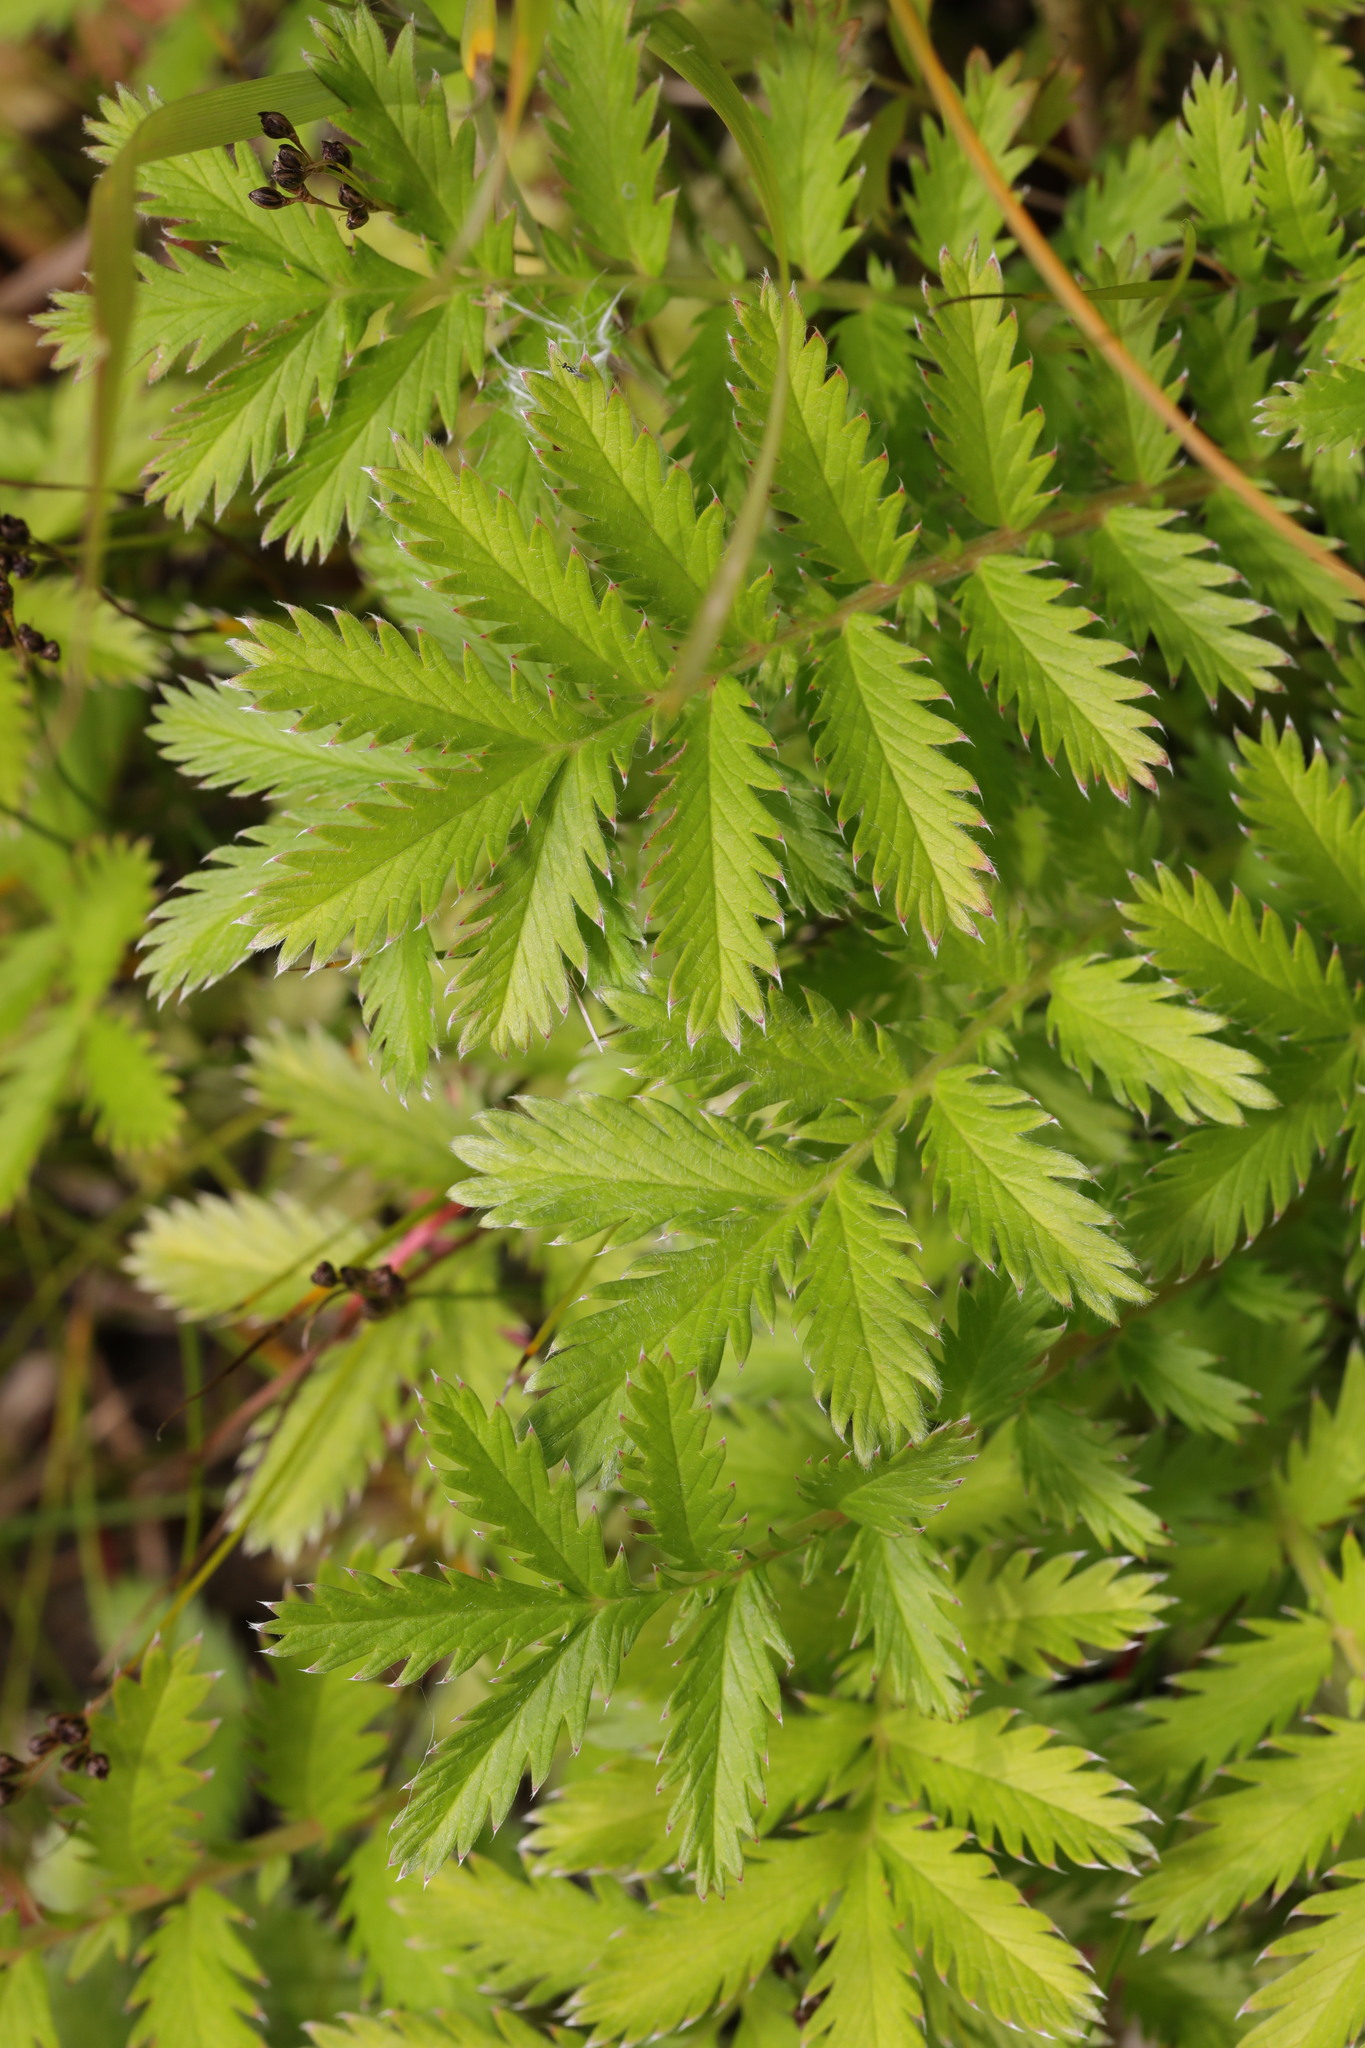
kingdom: Plantae
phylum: Tracheophyta
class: Magnoliopsida
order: Rosales
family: Rosaceae
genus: Argentina
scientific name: Argentina anserina
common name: Common silverweed
